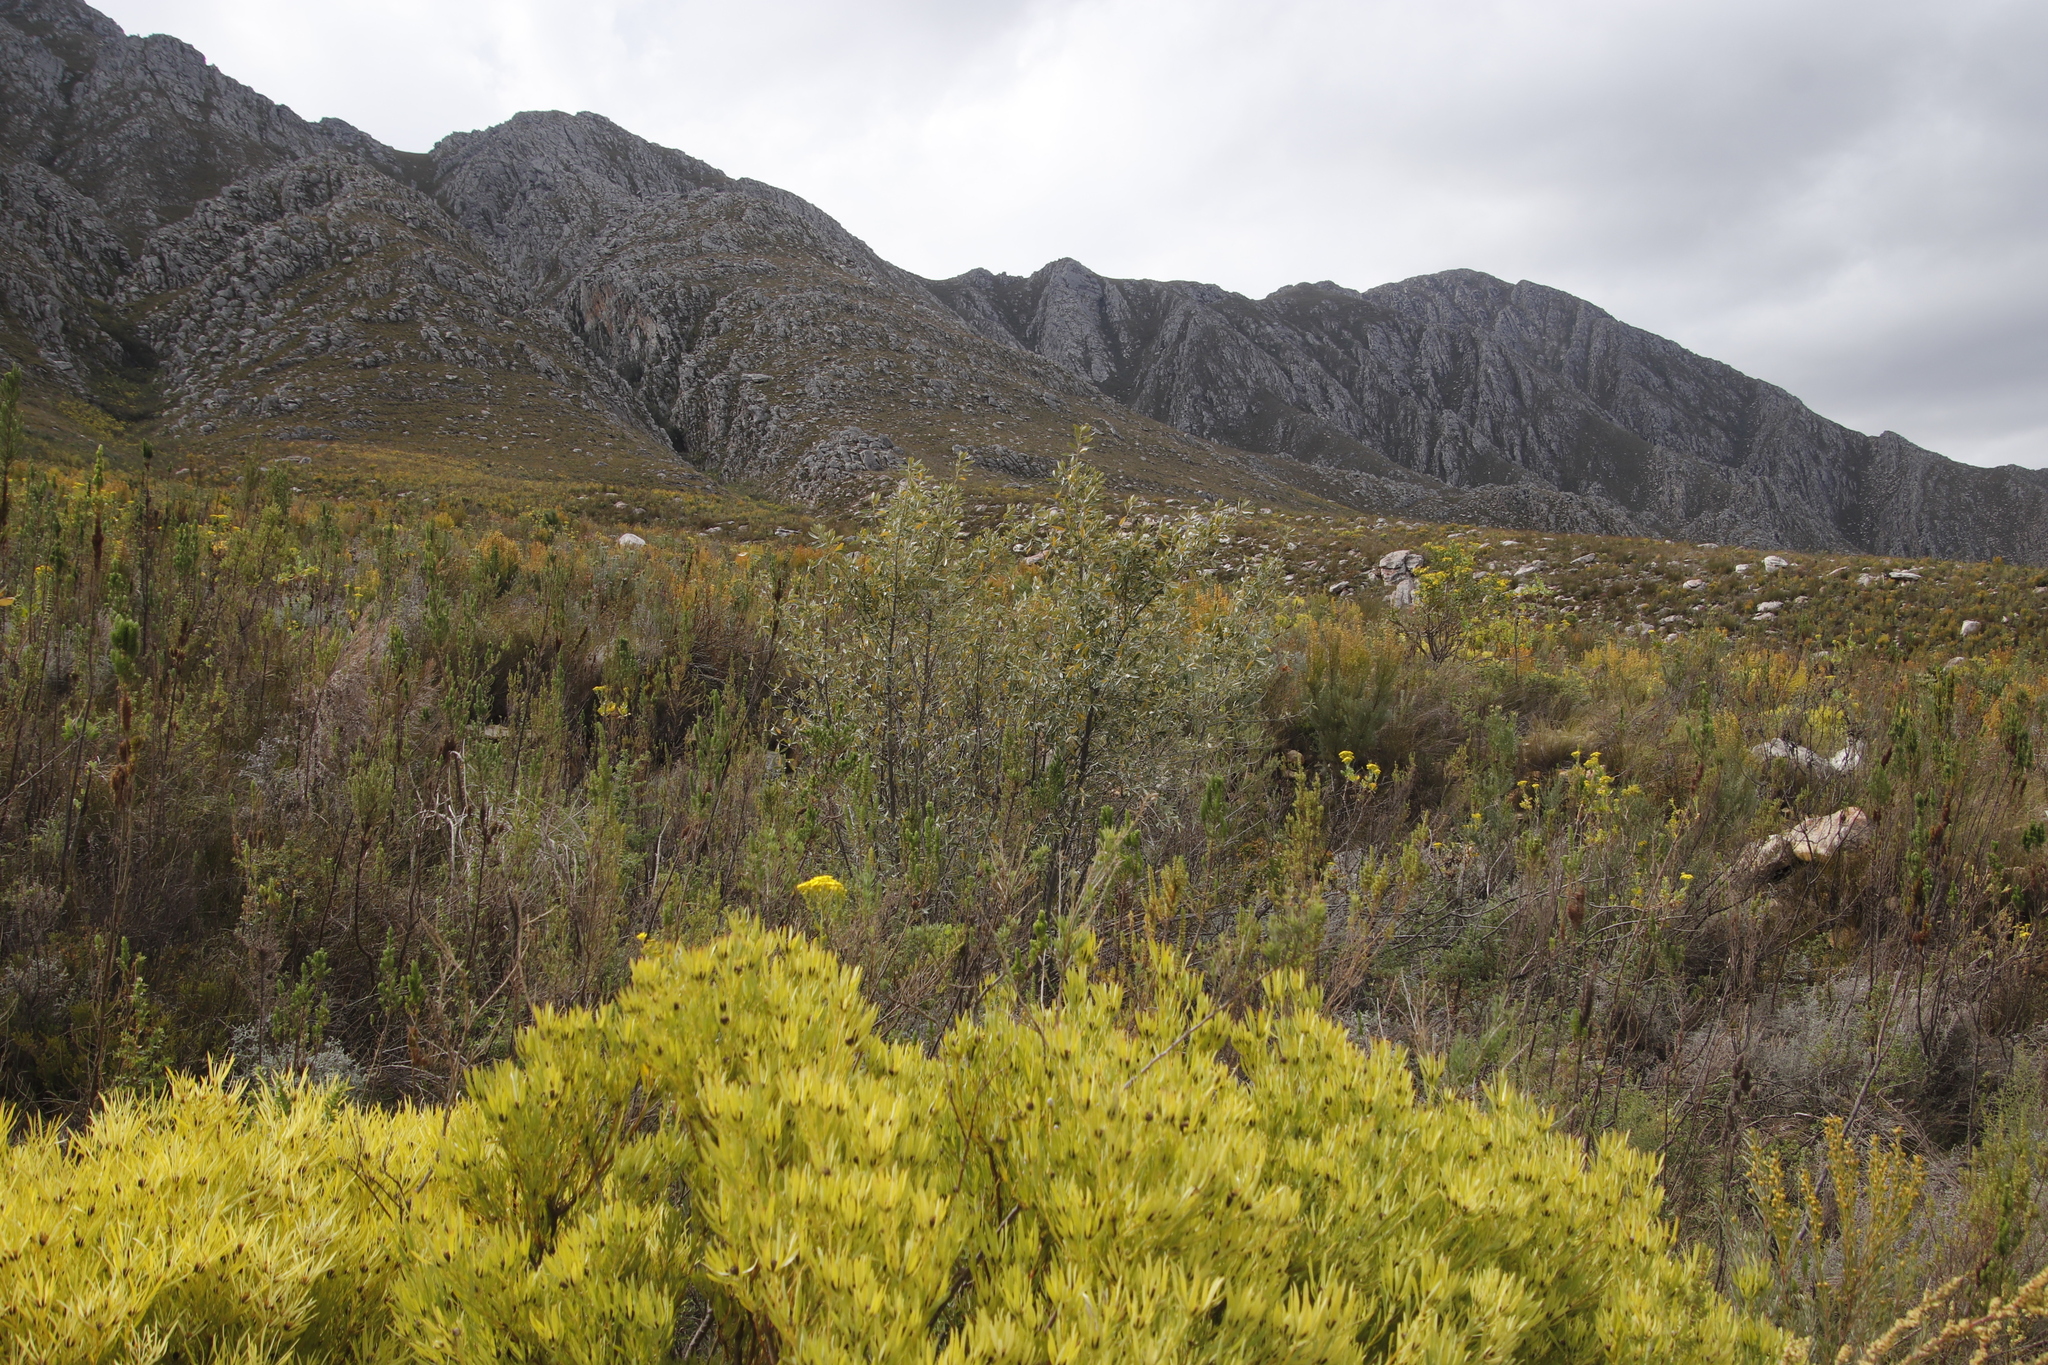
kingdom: Plantae
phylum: Tracheophyta
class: Magnoliopsida
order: Malpighiales
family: Achariaceae
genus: Kiggelaria
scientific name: Kiggelaria africana
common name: Wild peach
